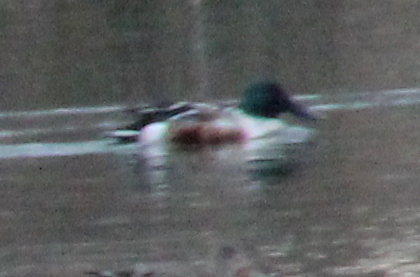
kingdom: Animalia
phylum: Chordata
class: Aves
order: Anseriformes
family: Anatidae
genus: Spatula
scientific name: Spatula clypeata
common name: Northern shoveler
